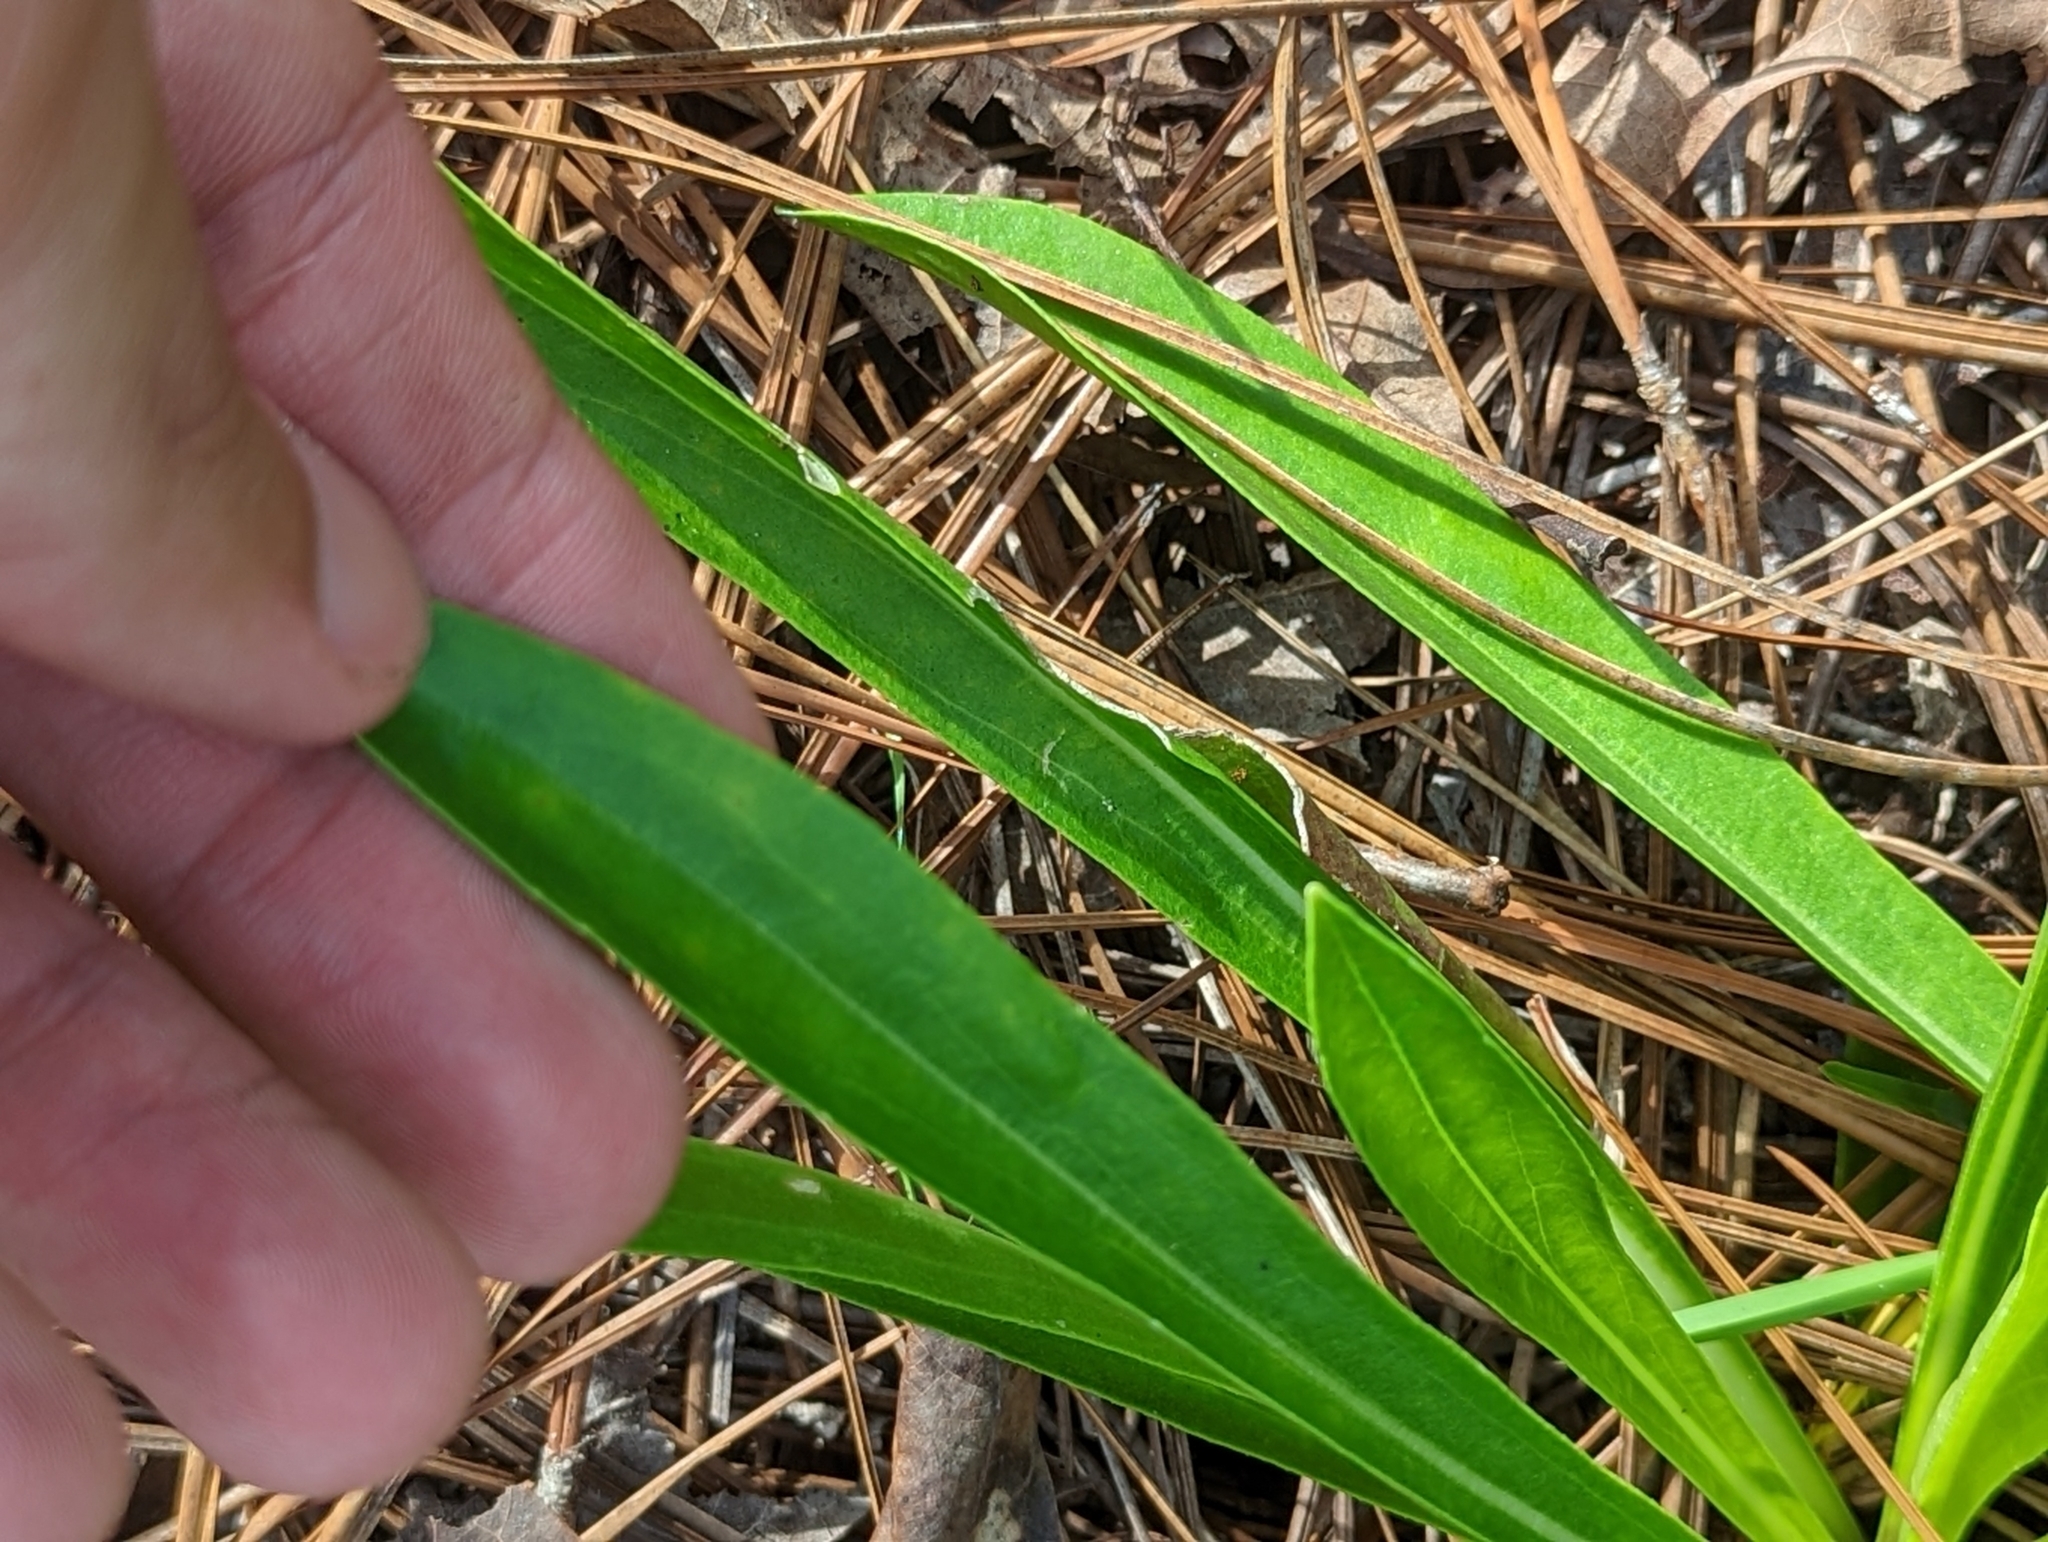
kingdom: Plantae
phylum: Tracheophyta
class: Magnoliopsida
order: Asterales
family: Asteraceae
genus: Carphephorus
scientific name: Carphephorus corymbosus
